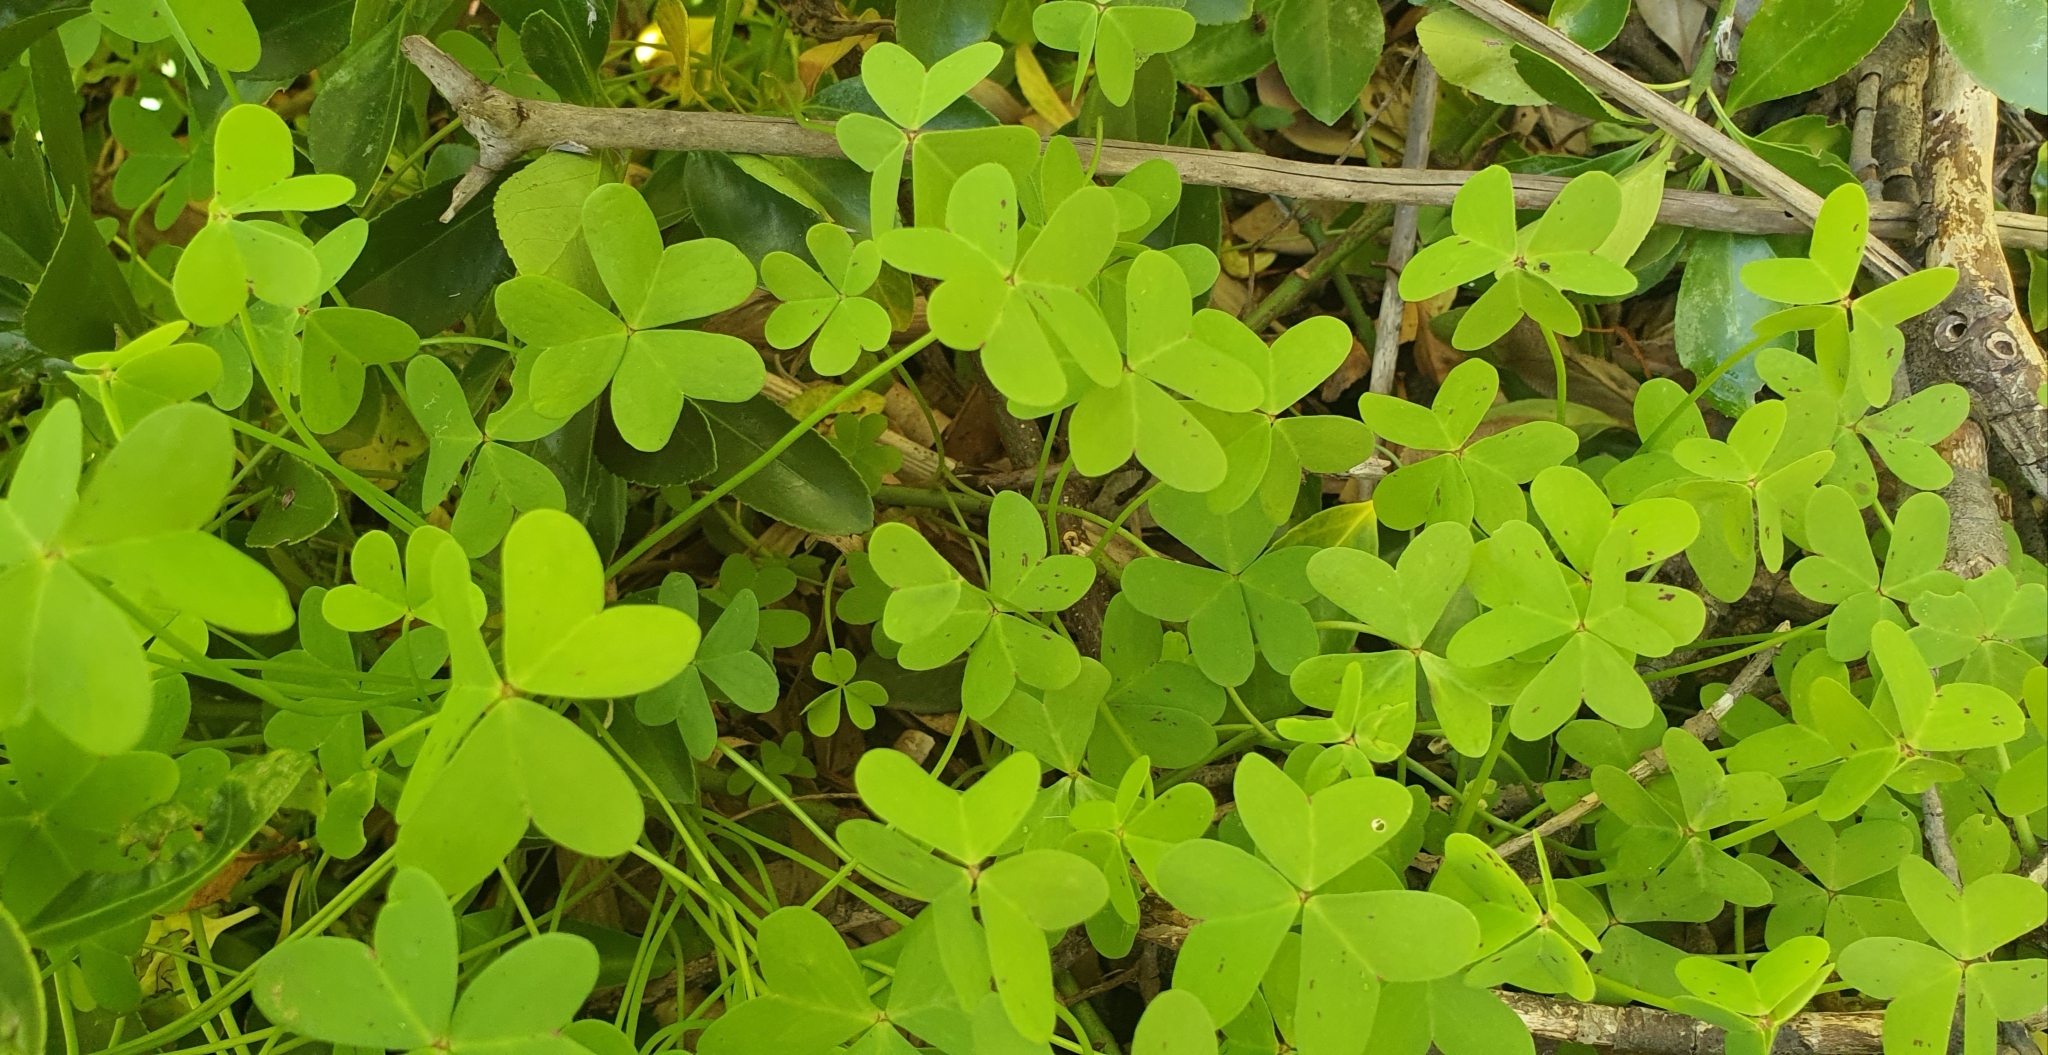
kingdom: Plantae
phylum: Tracheophyta
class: Magnoliopsida
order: Oxalidales
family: Oxalidaceae
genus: Oxalis
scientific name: Oxalis pes-caprae
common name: Bermuda-buttercup
